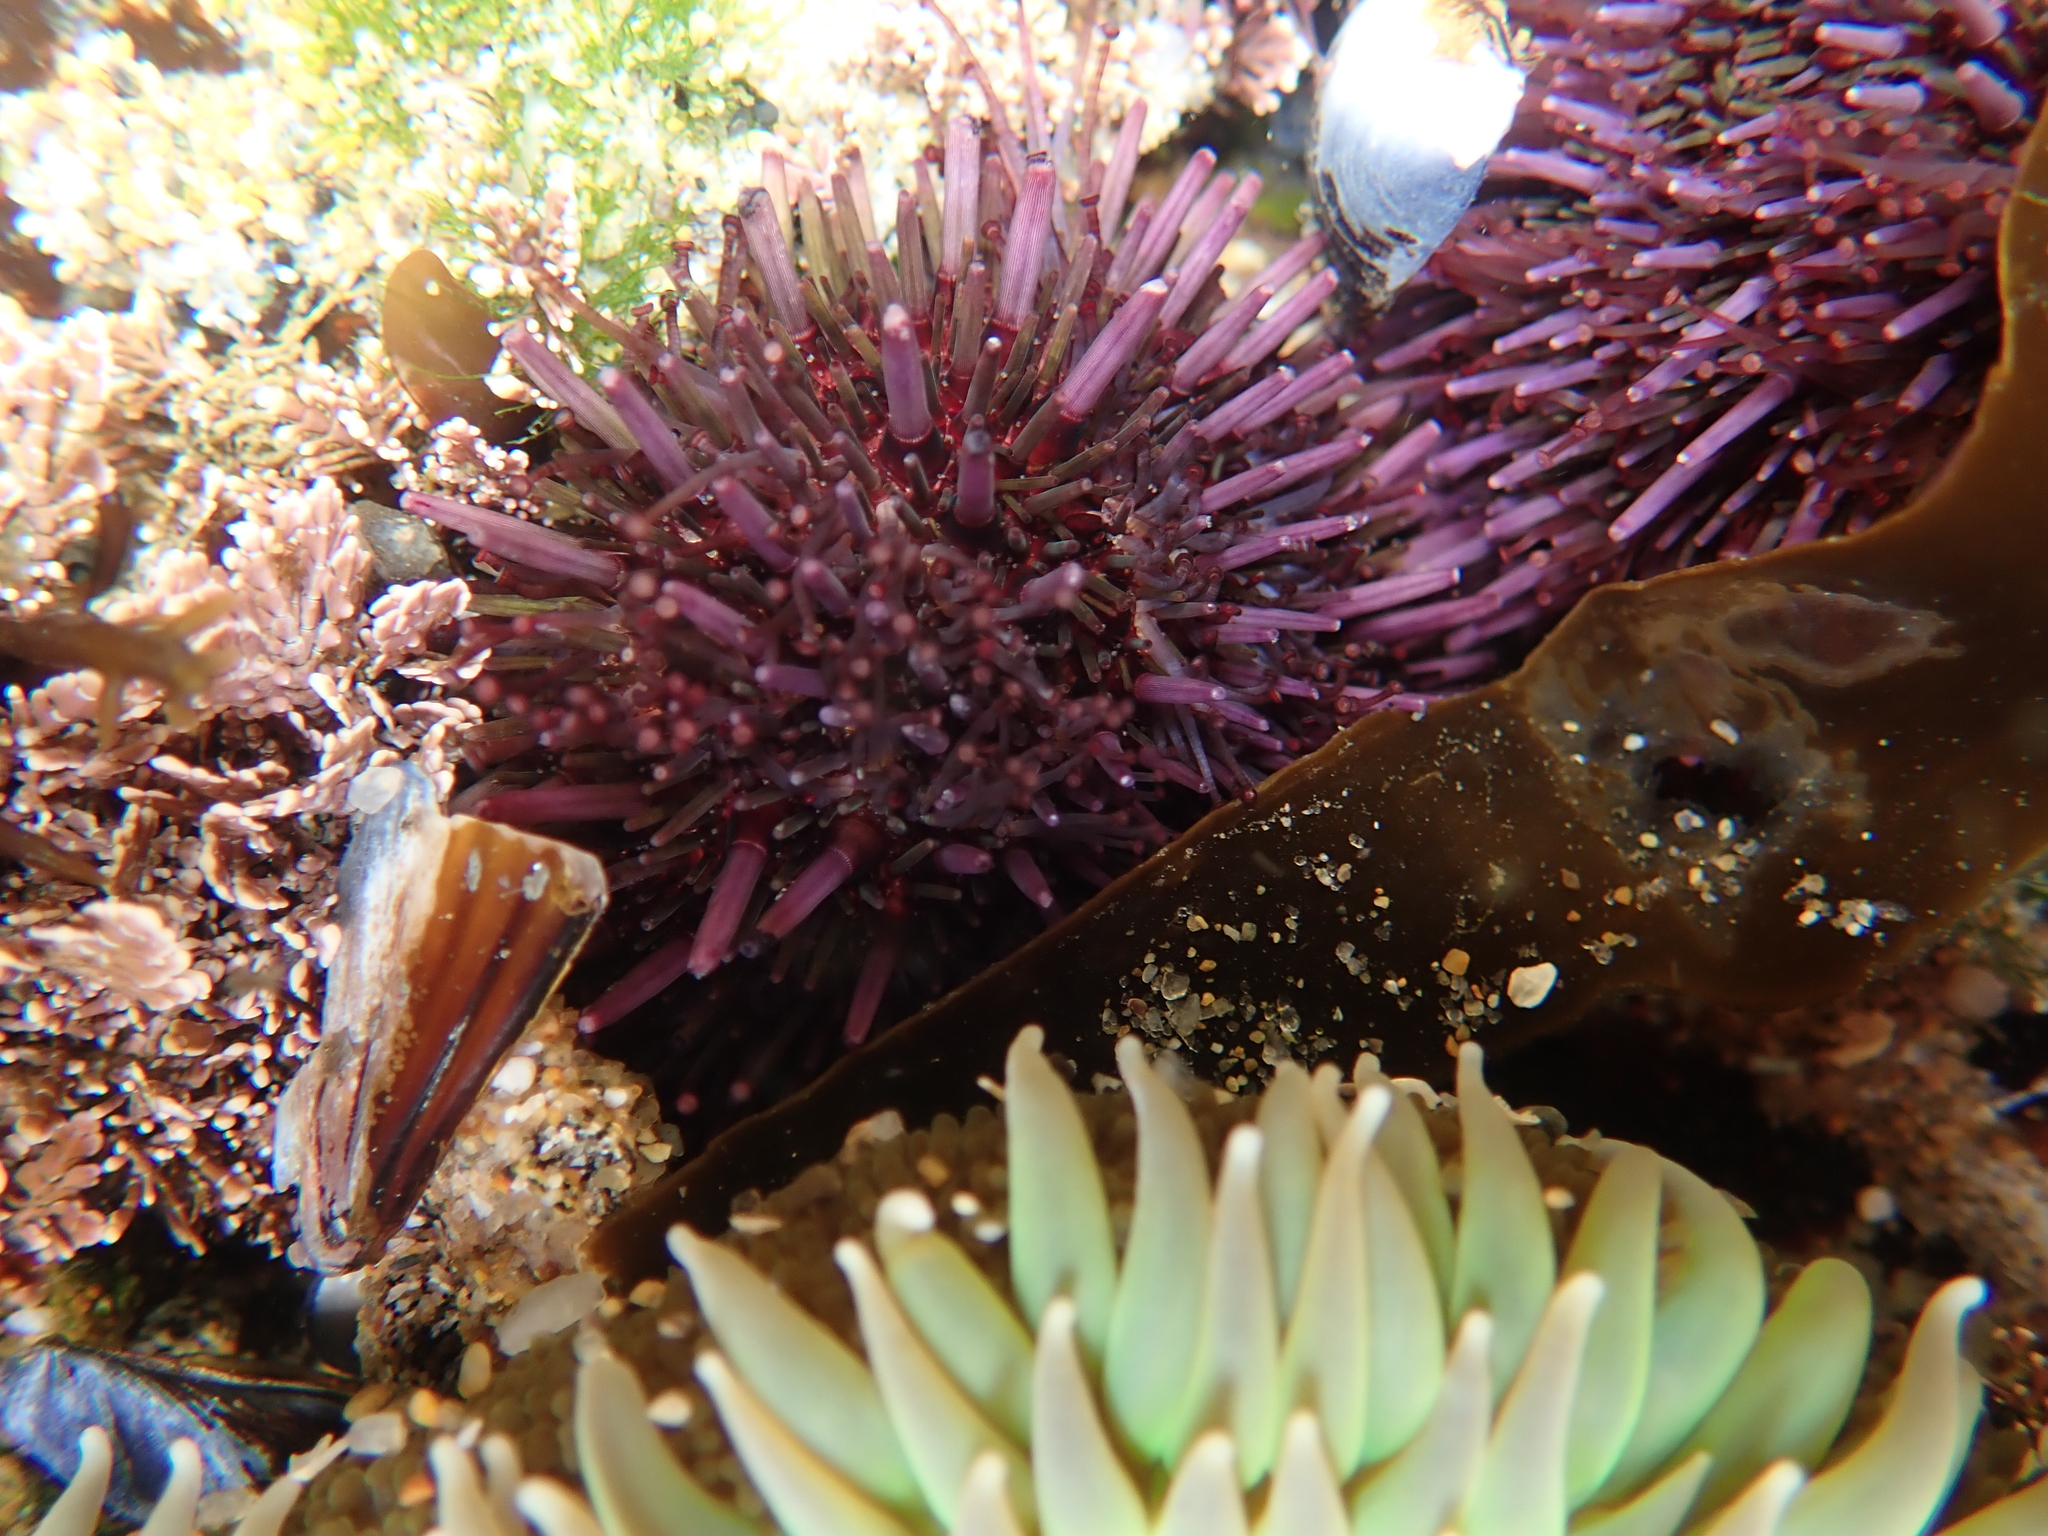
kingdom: Animalia
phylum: Echinodermata
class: Echinoidea
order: Camarodonta
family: Strongylocentrotidae
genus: Strongylocentrotus
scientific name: Strongylocentrotus purpuratus
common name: Purple sea urchin
